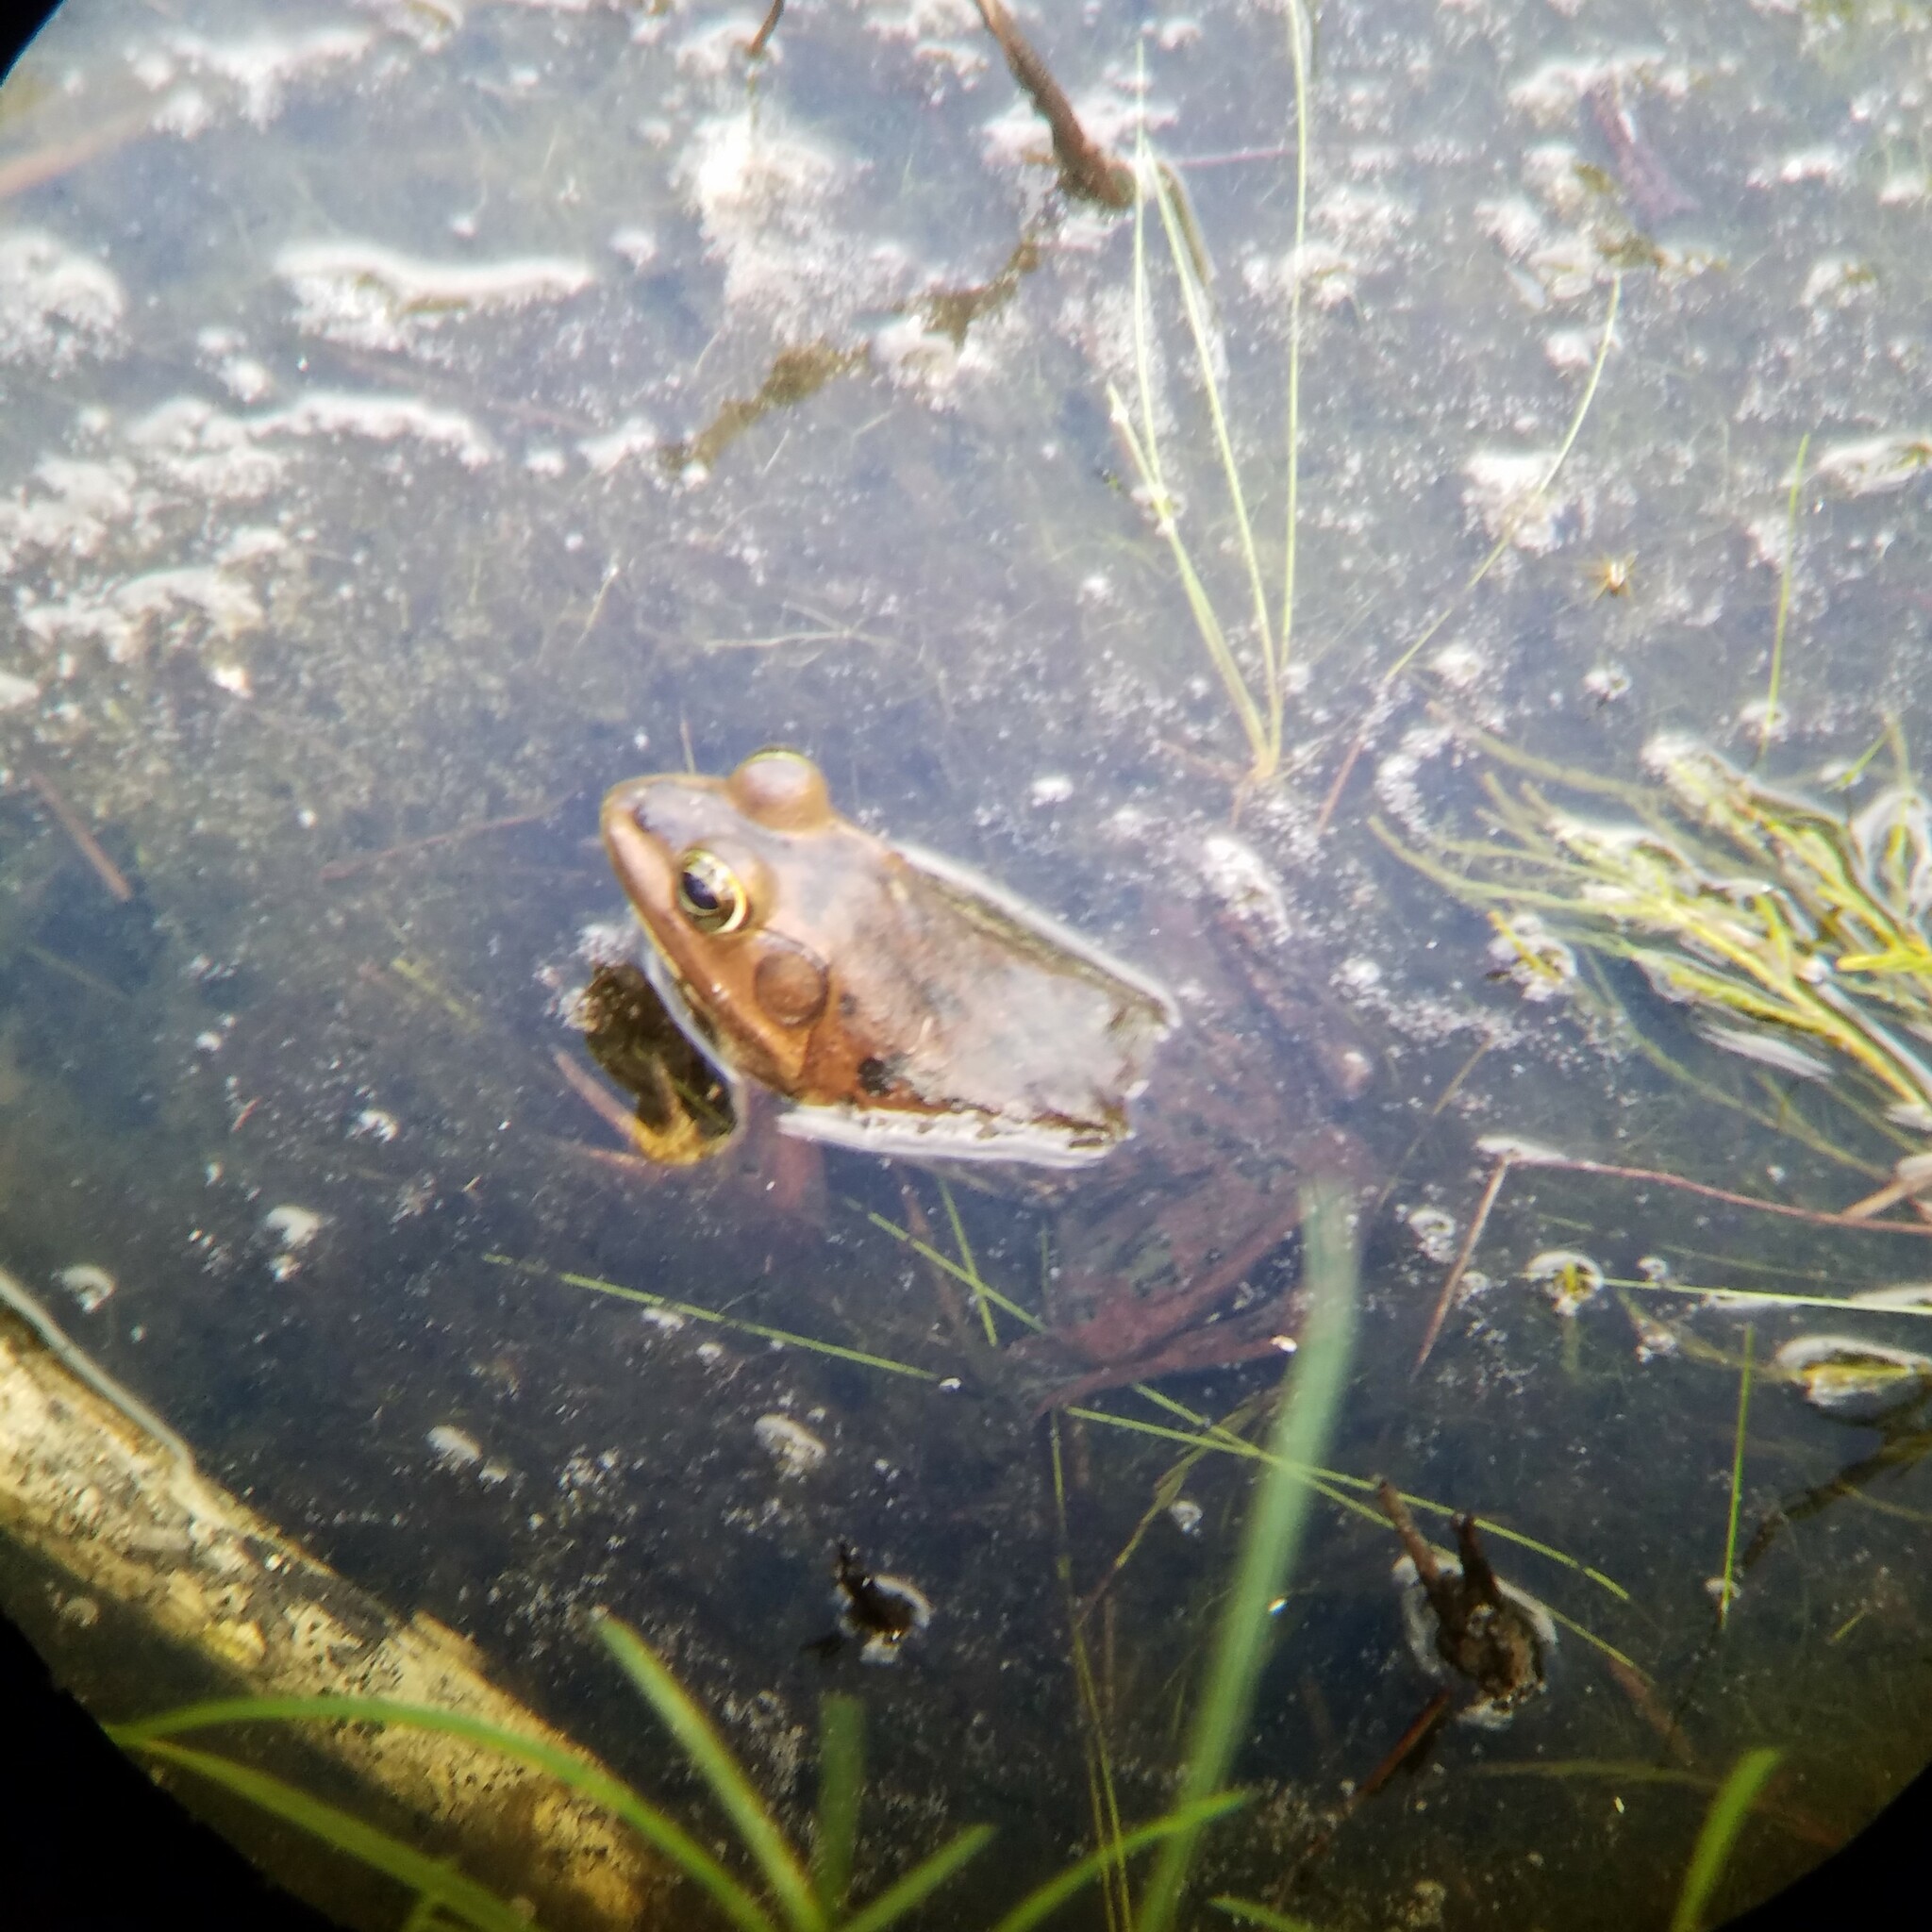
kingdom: Animalia
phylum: Chordata
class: Amphibia
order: Anura
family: Ranidae
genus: Lithobates
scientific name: Lithobates grylio
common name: Pig frog
